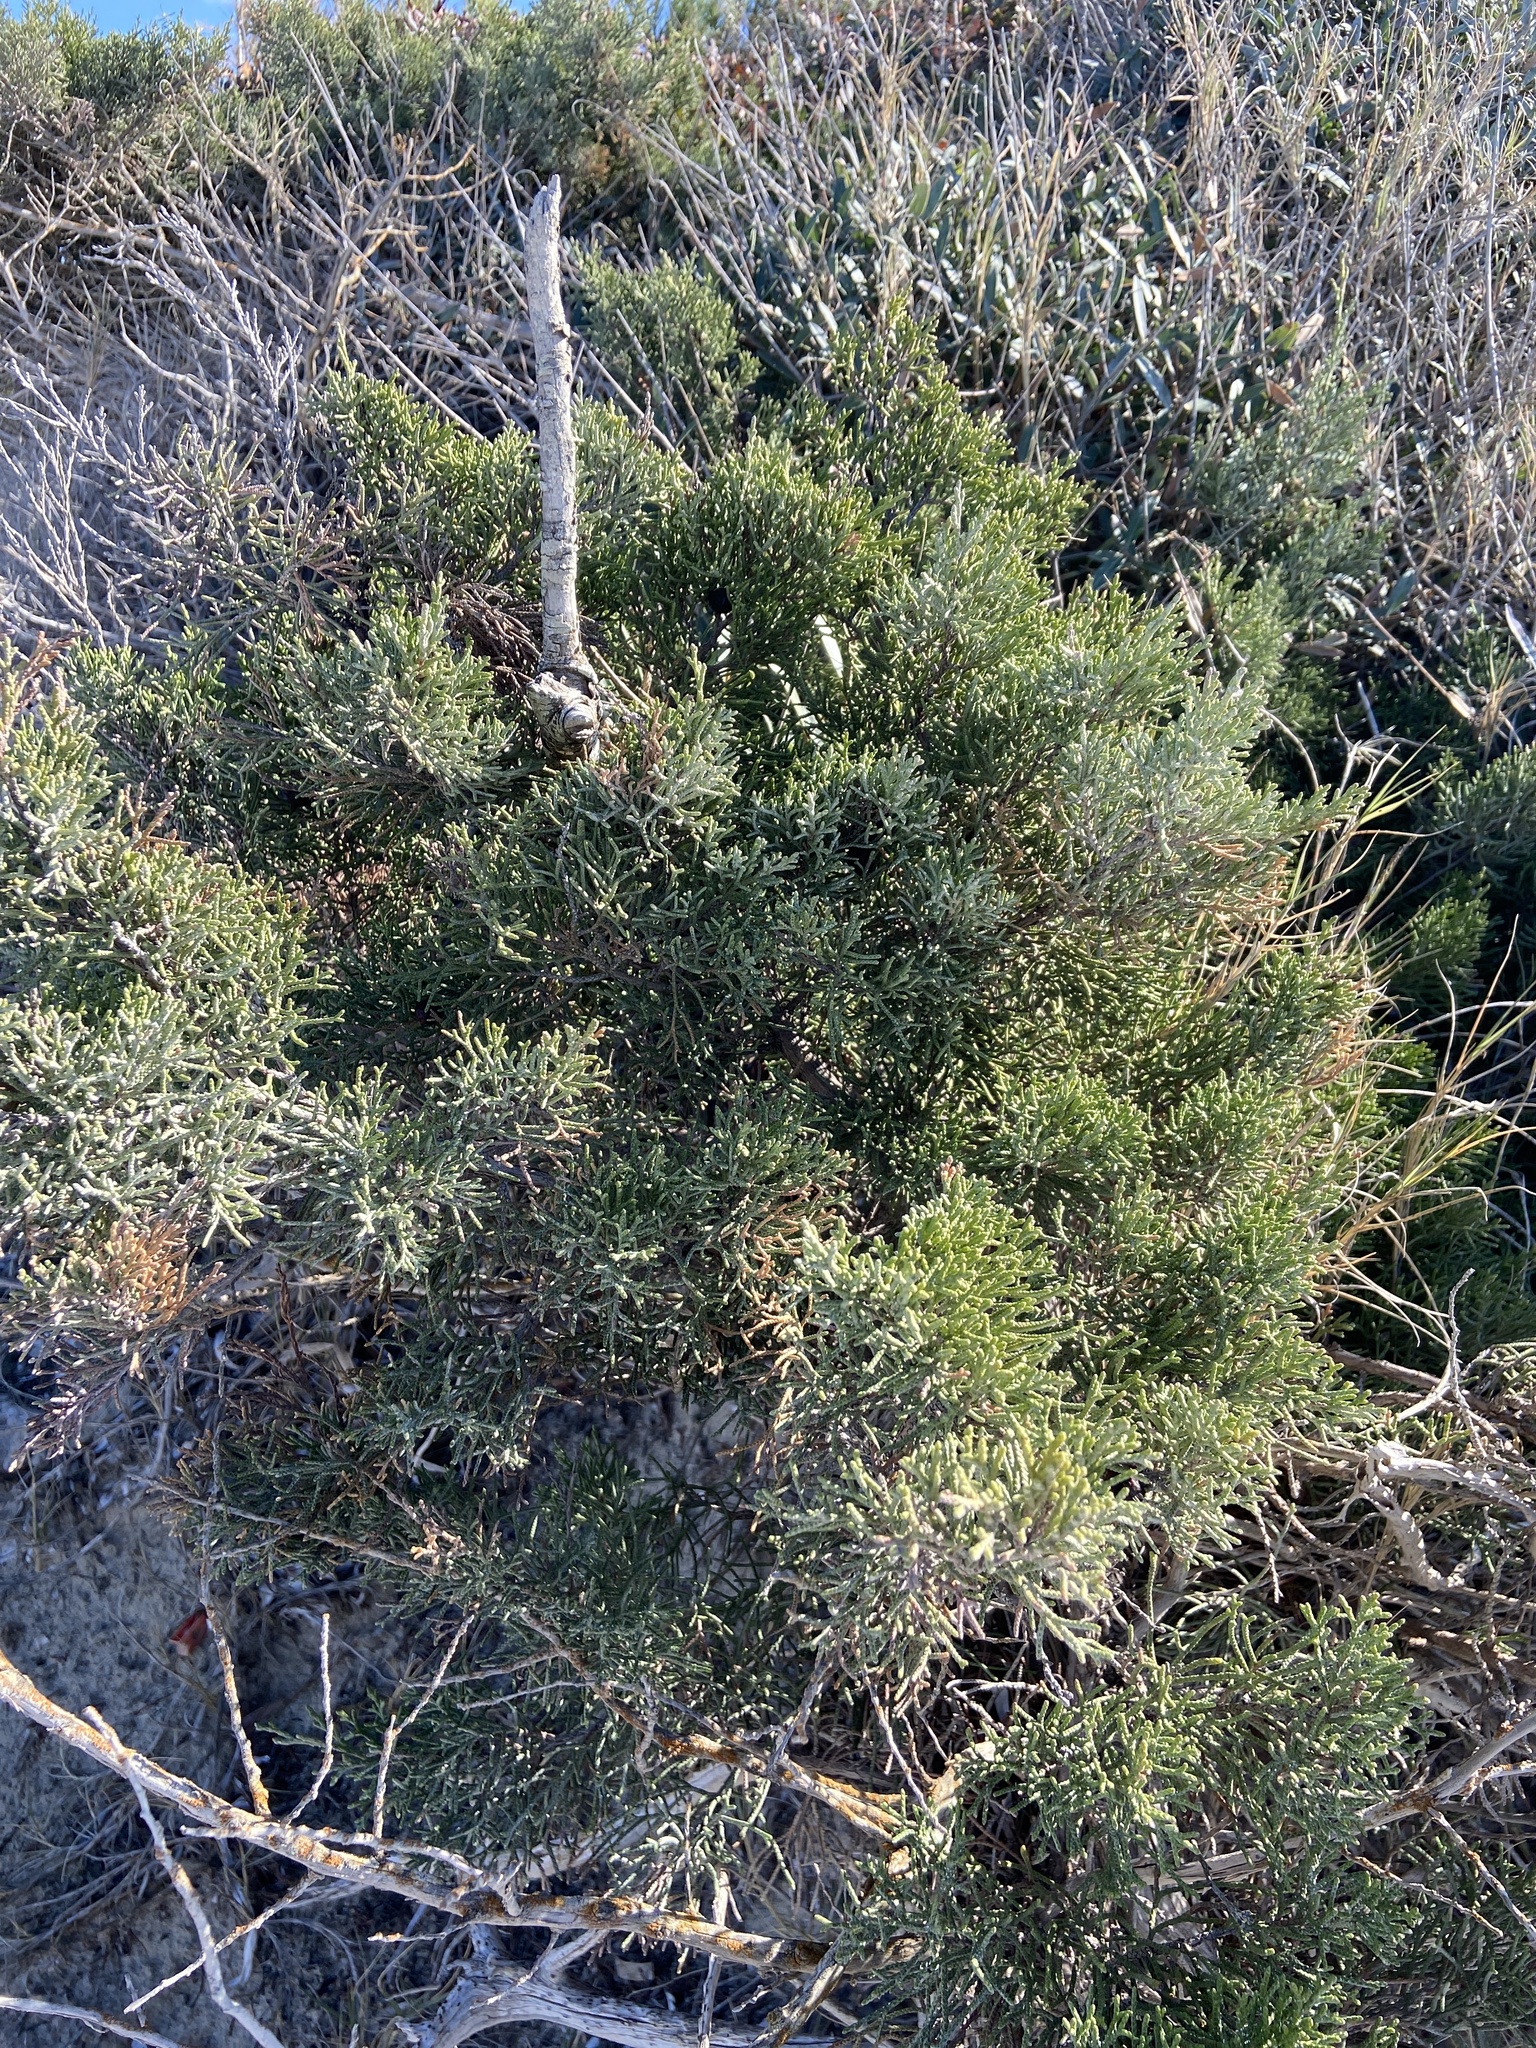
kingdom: Plantae
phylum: Tracheophyta
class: Pinopsida
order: Pinales
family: Cupressaceae
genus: Juniperus
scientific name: Juniperus phoenicea
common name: Phoenician juniper
